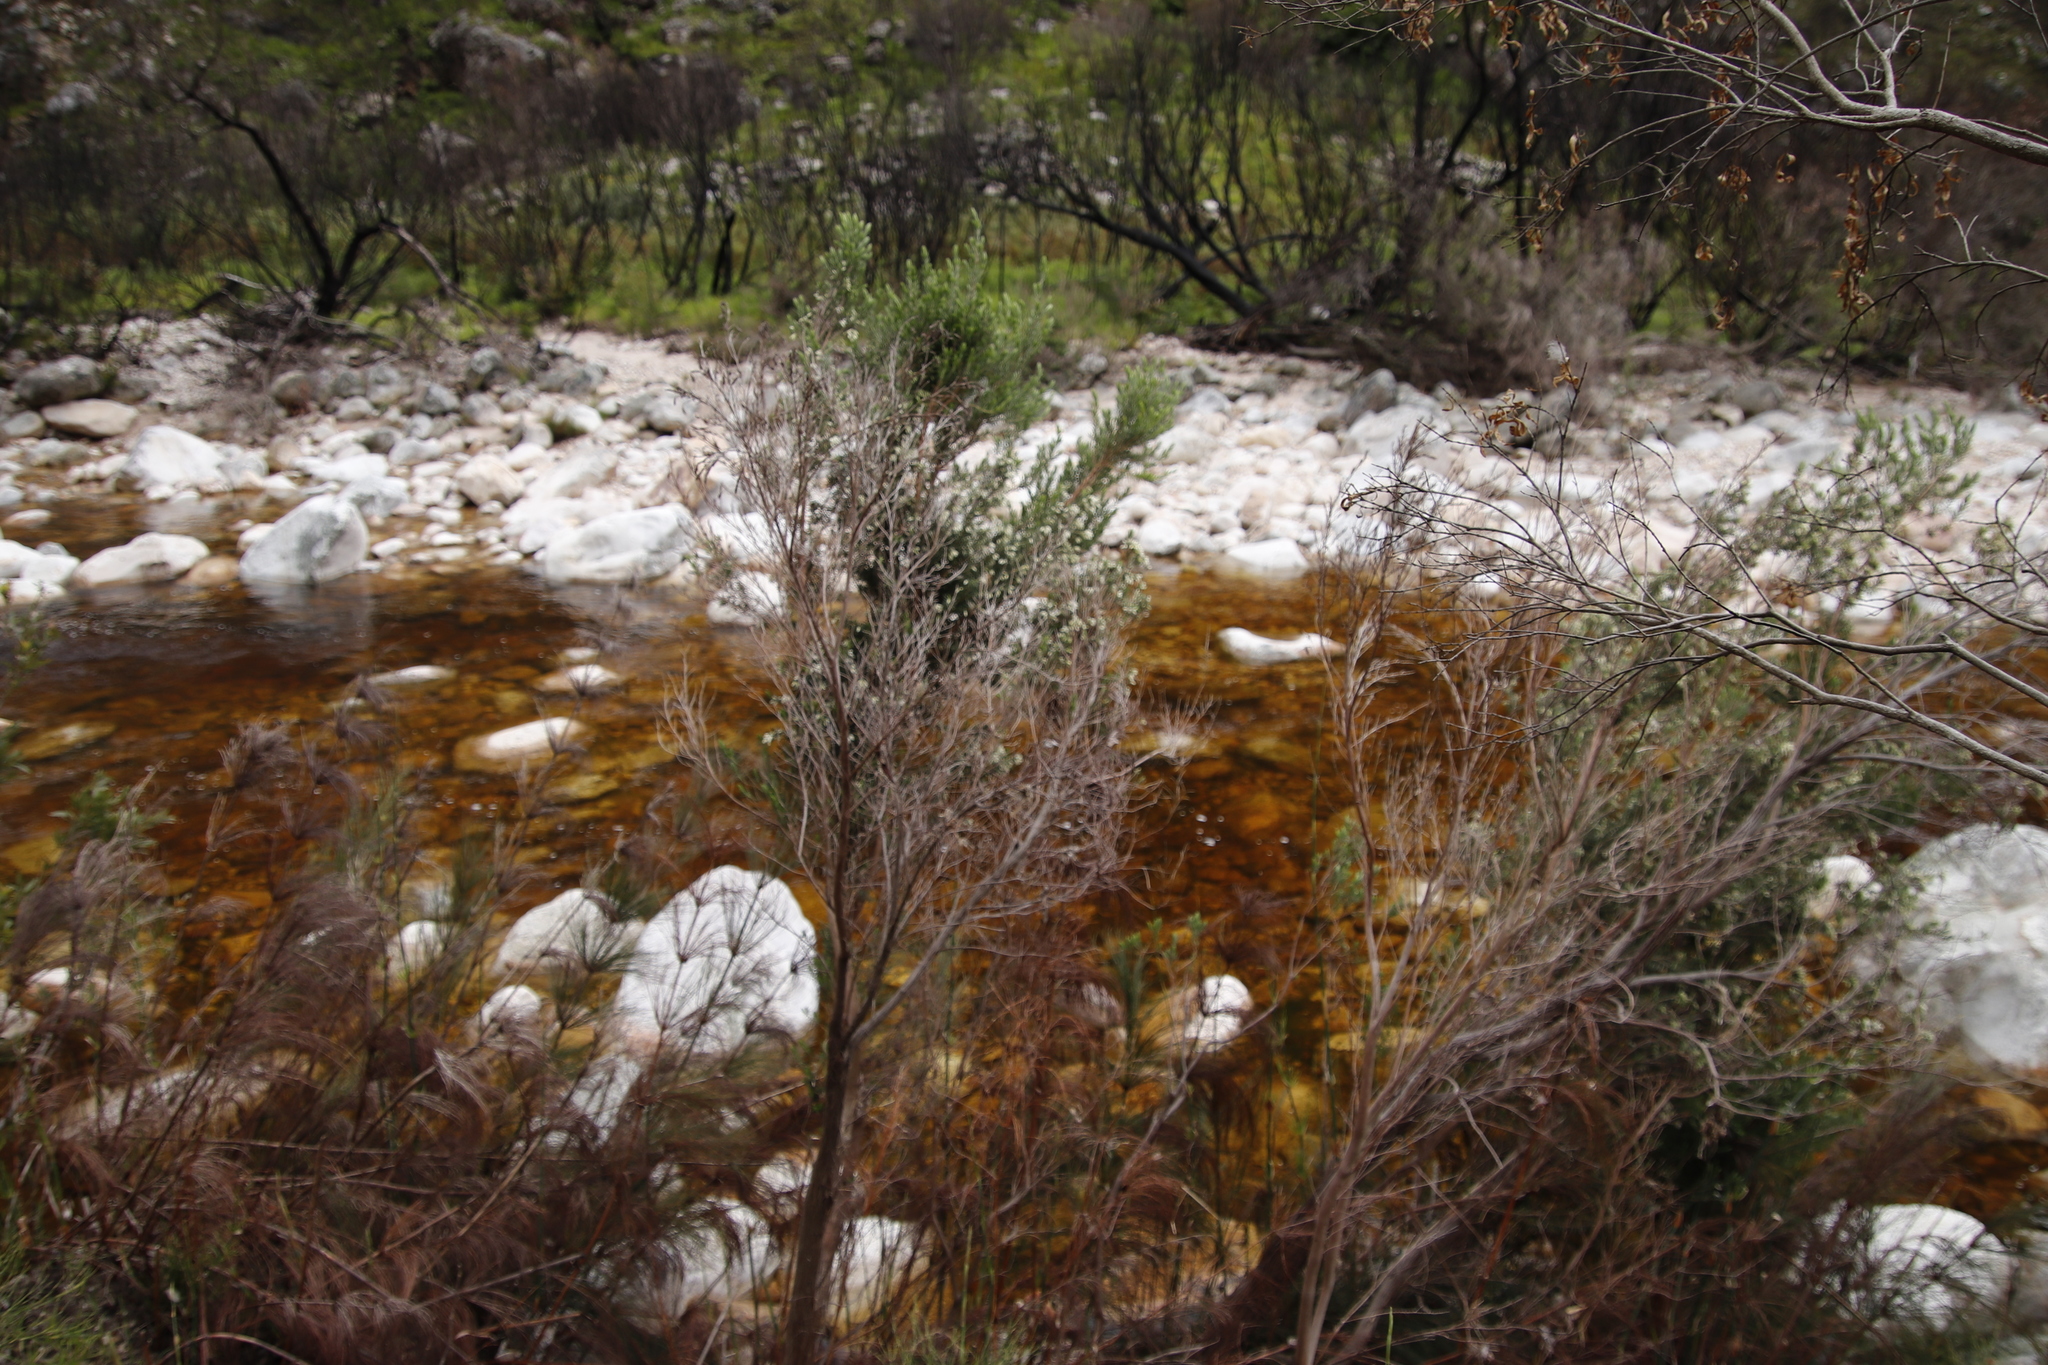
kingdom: Plantae
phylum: Tracheophyta
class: Magnoliopsida
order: Ericales
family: Ericaceae
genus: Erica
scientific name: Erica caffra
